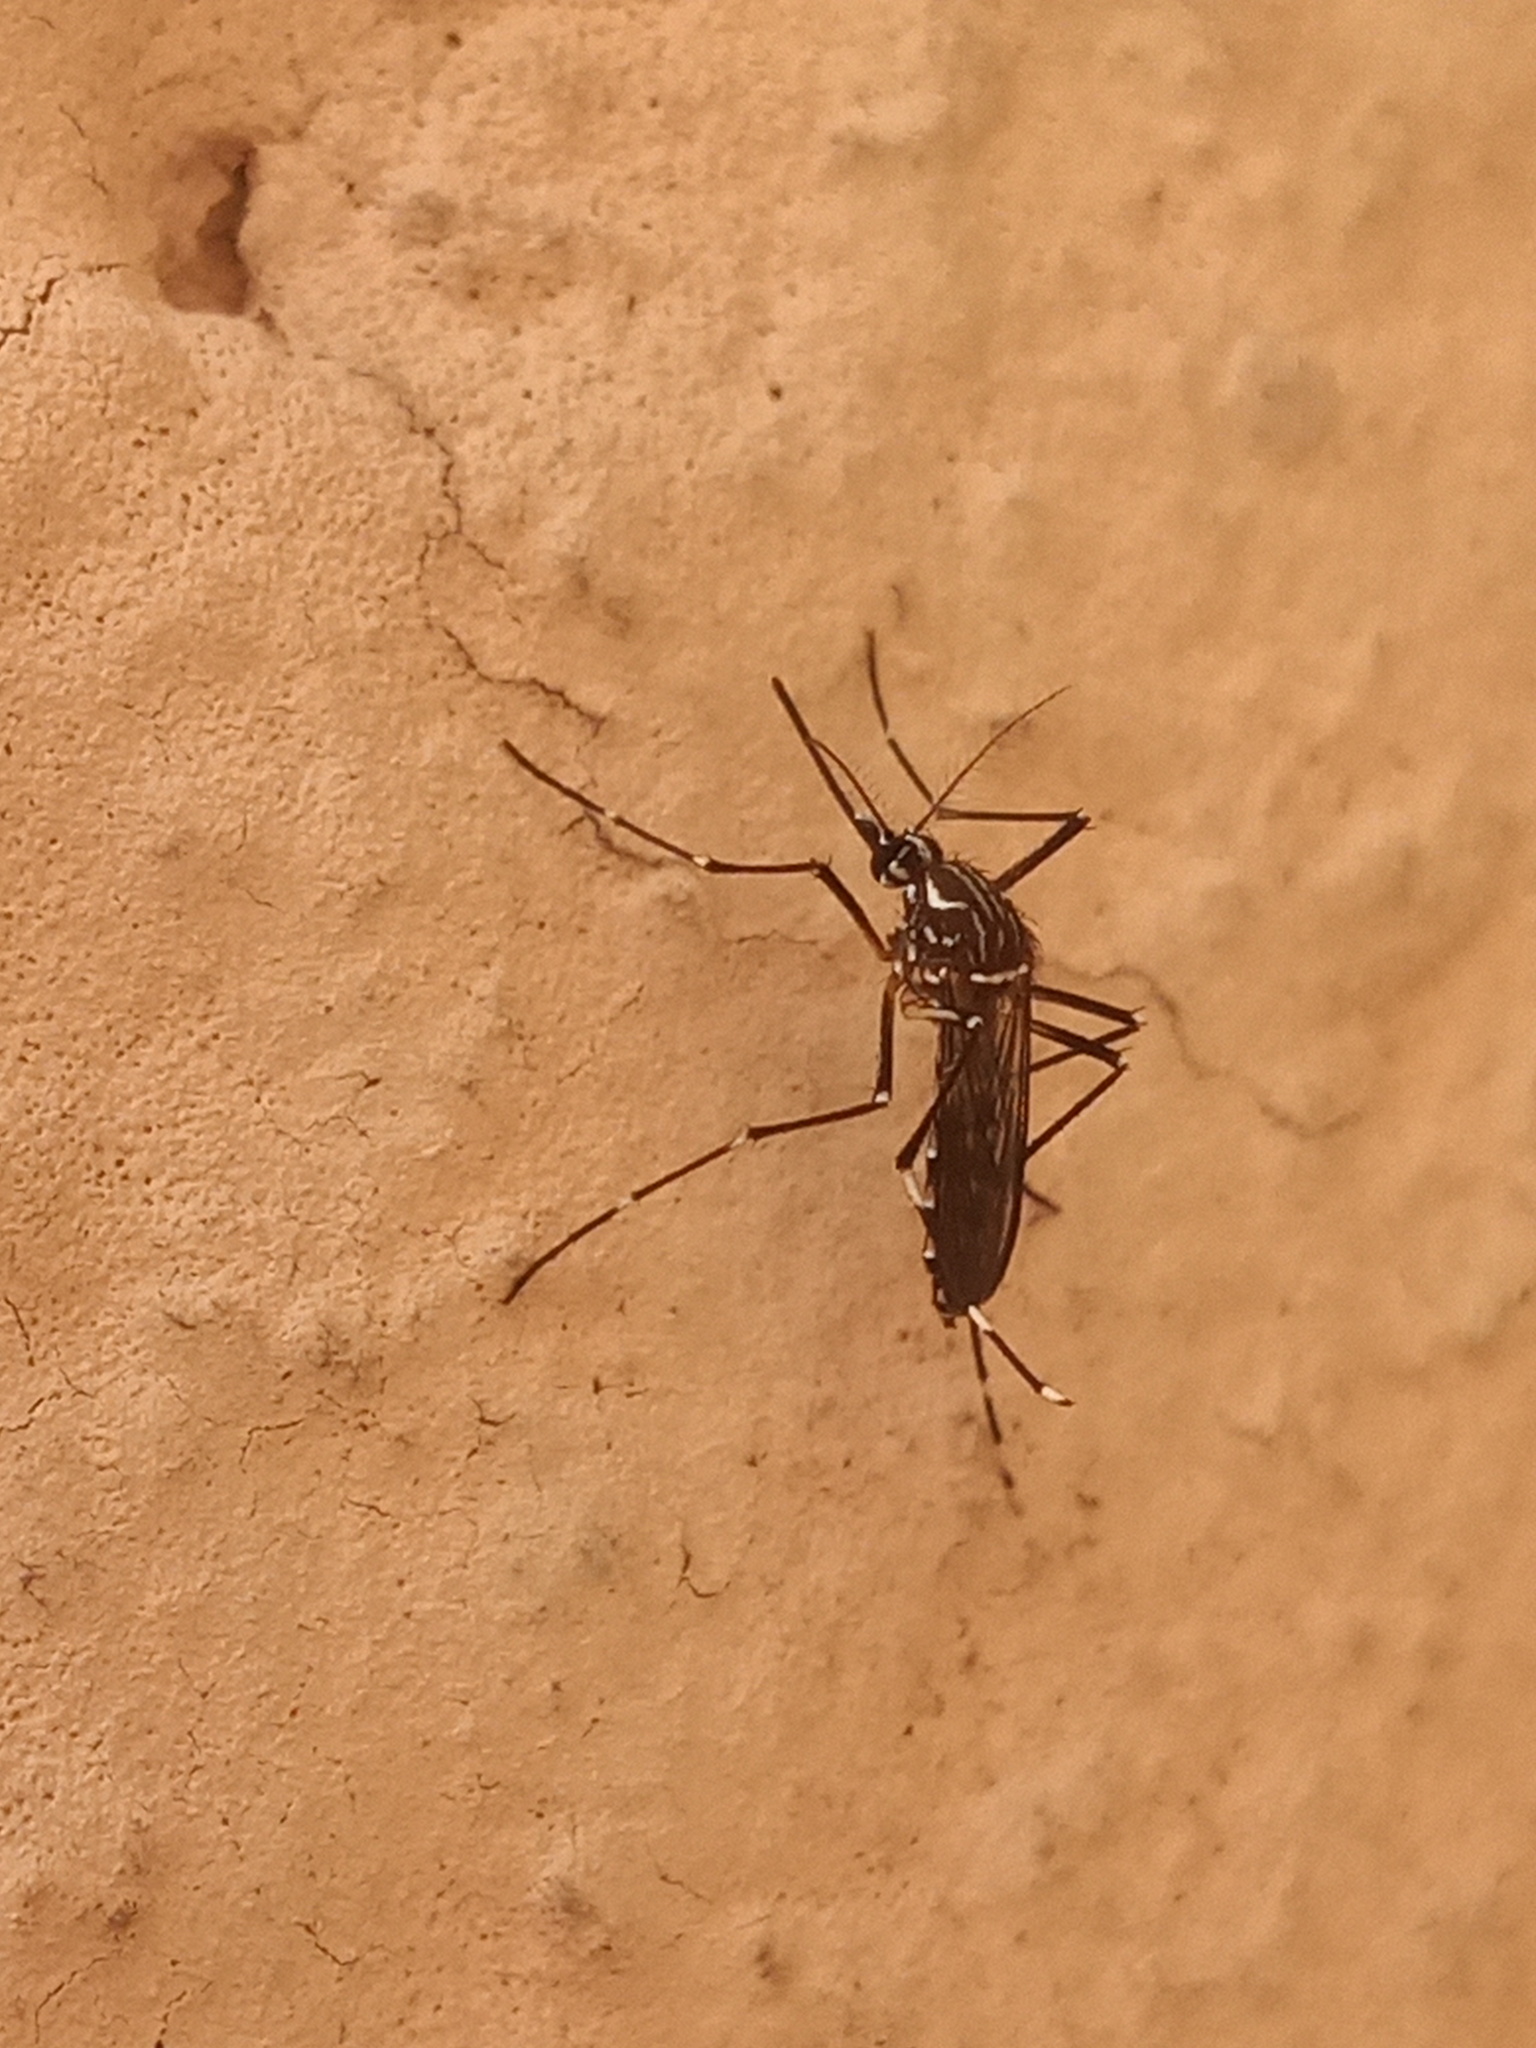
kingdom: Animalia
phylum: Arthropoda
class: Insecta
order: Diptera
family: Culicidae
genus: Aedes
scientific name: Aedes aegypti
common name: Yellow fever mosquito
